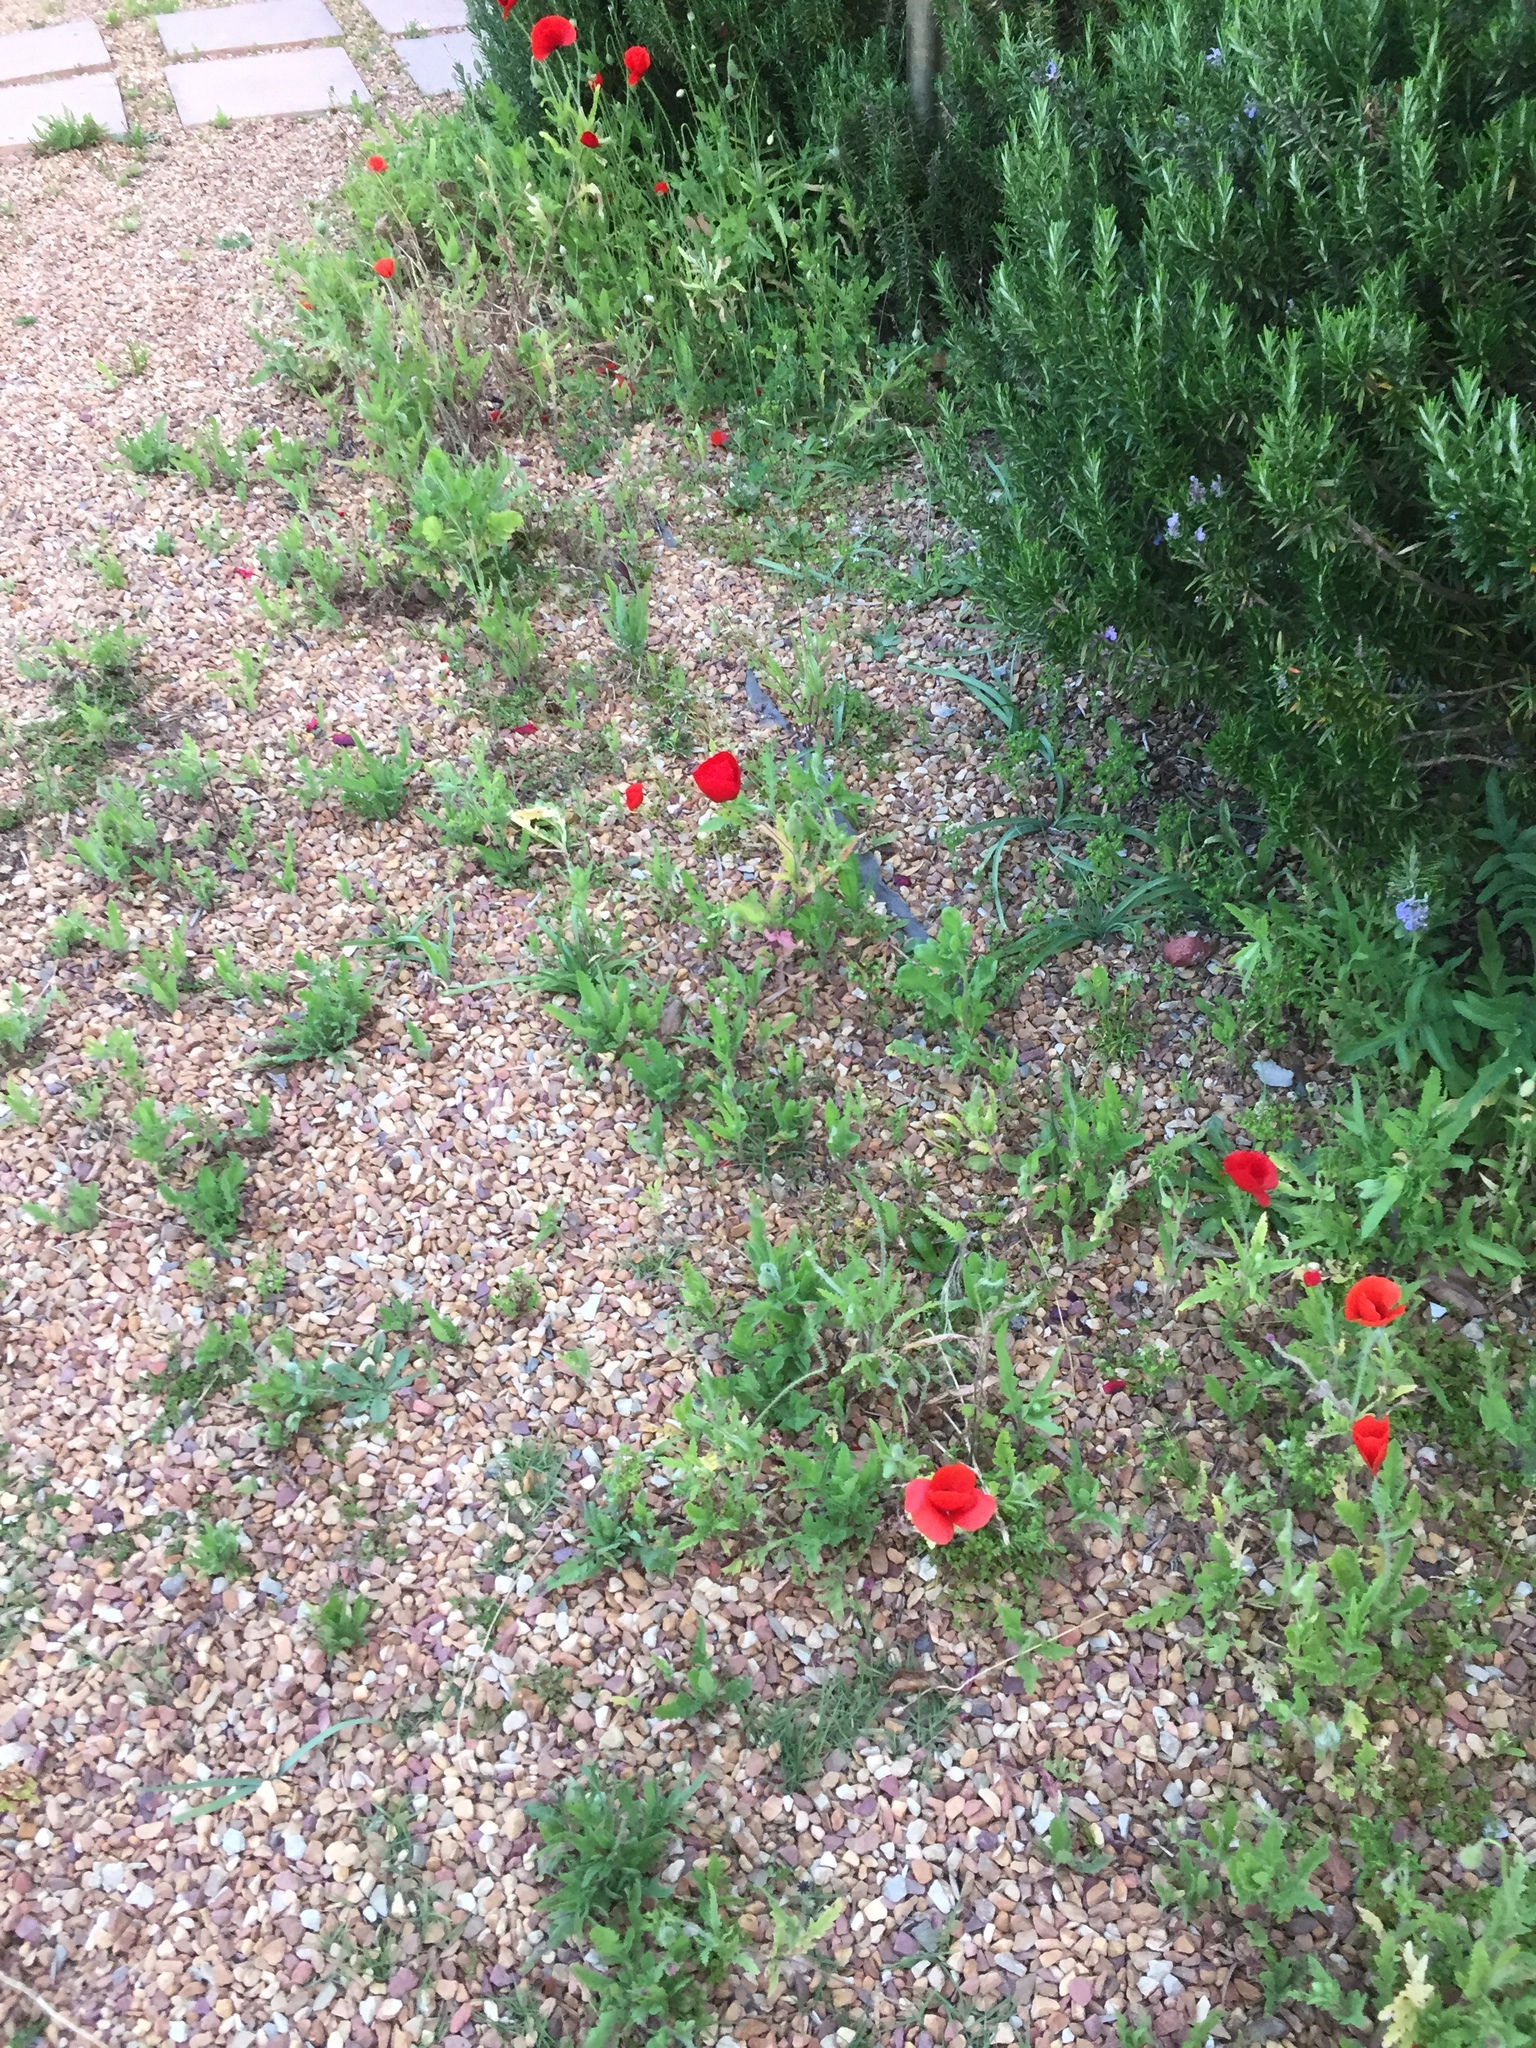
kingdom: Plantae
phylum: Tracheophyta
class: Magnoliopsida
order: Ranunculales
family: Papaveraceae
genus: Papaver
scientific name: Papaver rhoeas
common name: Corn poppy
